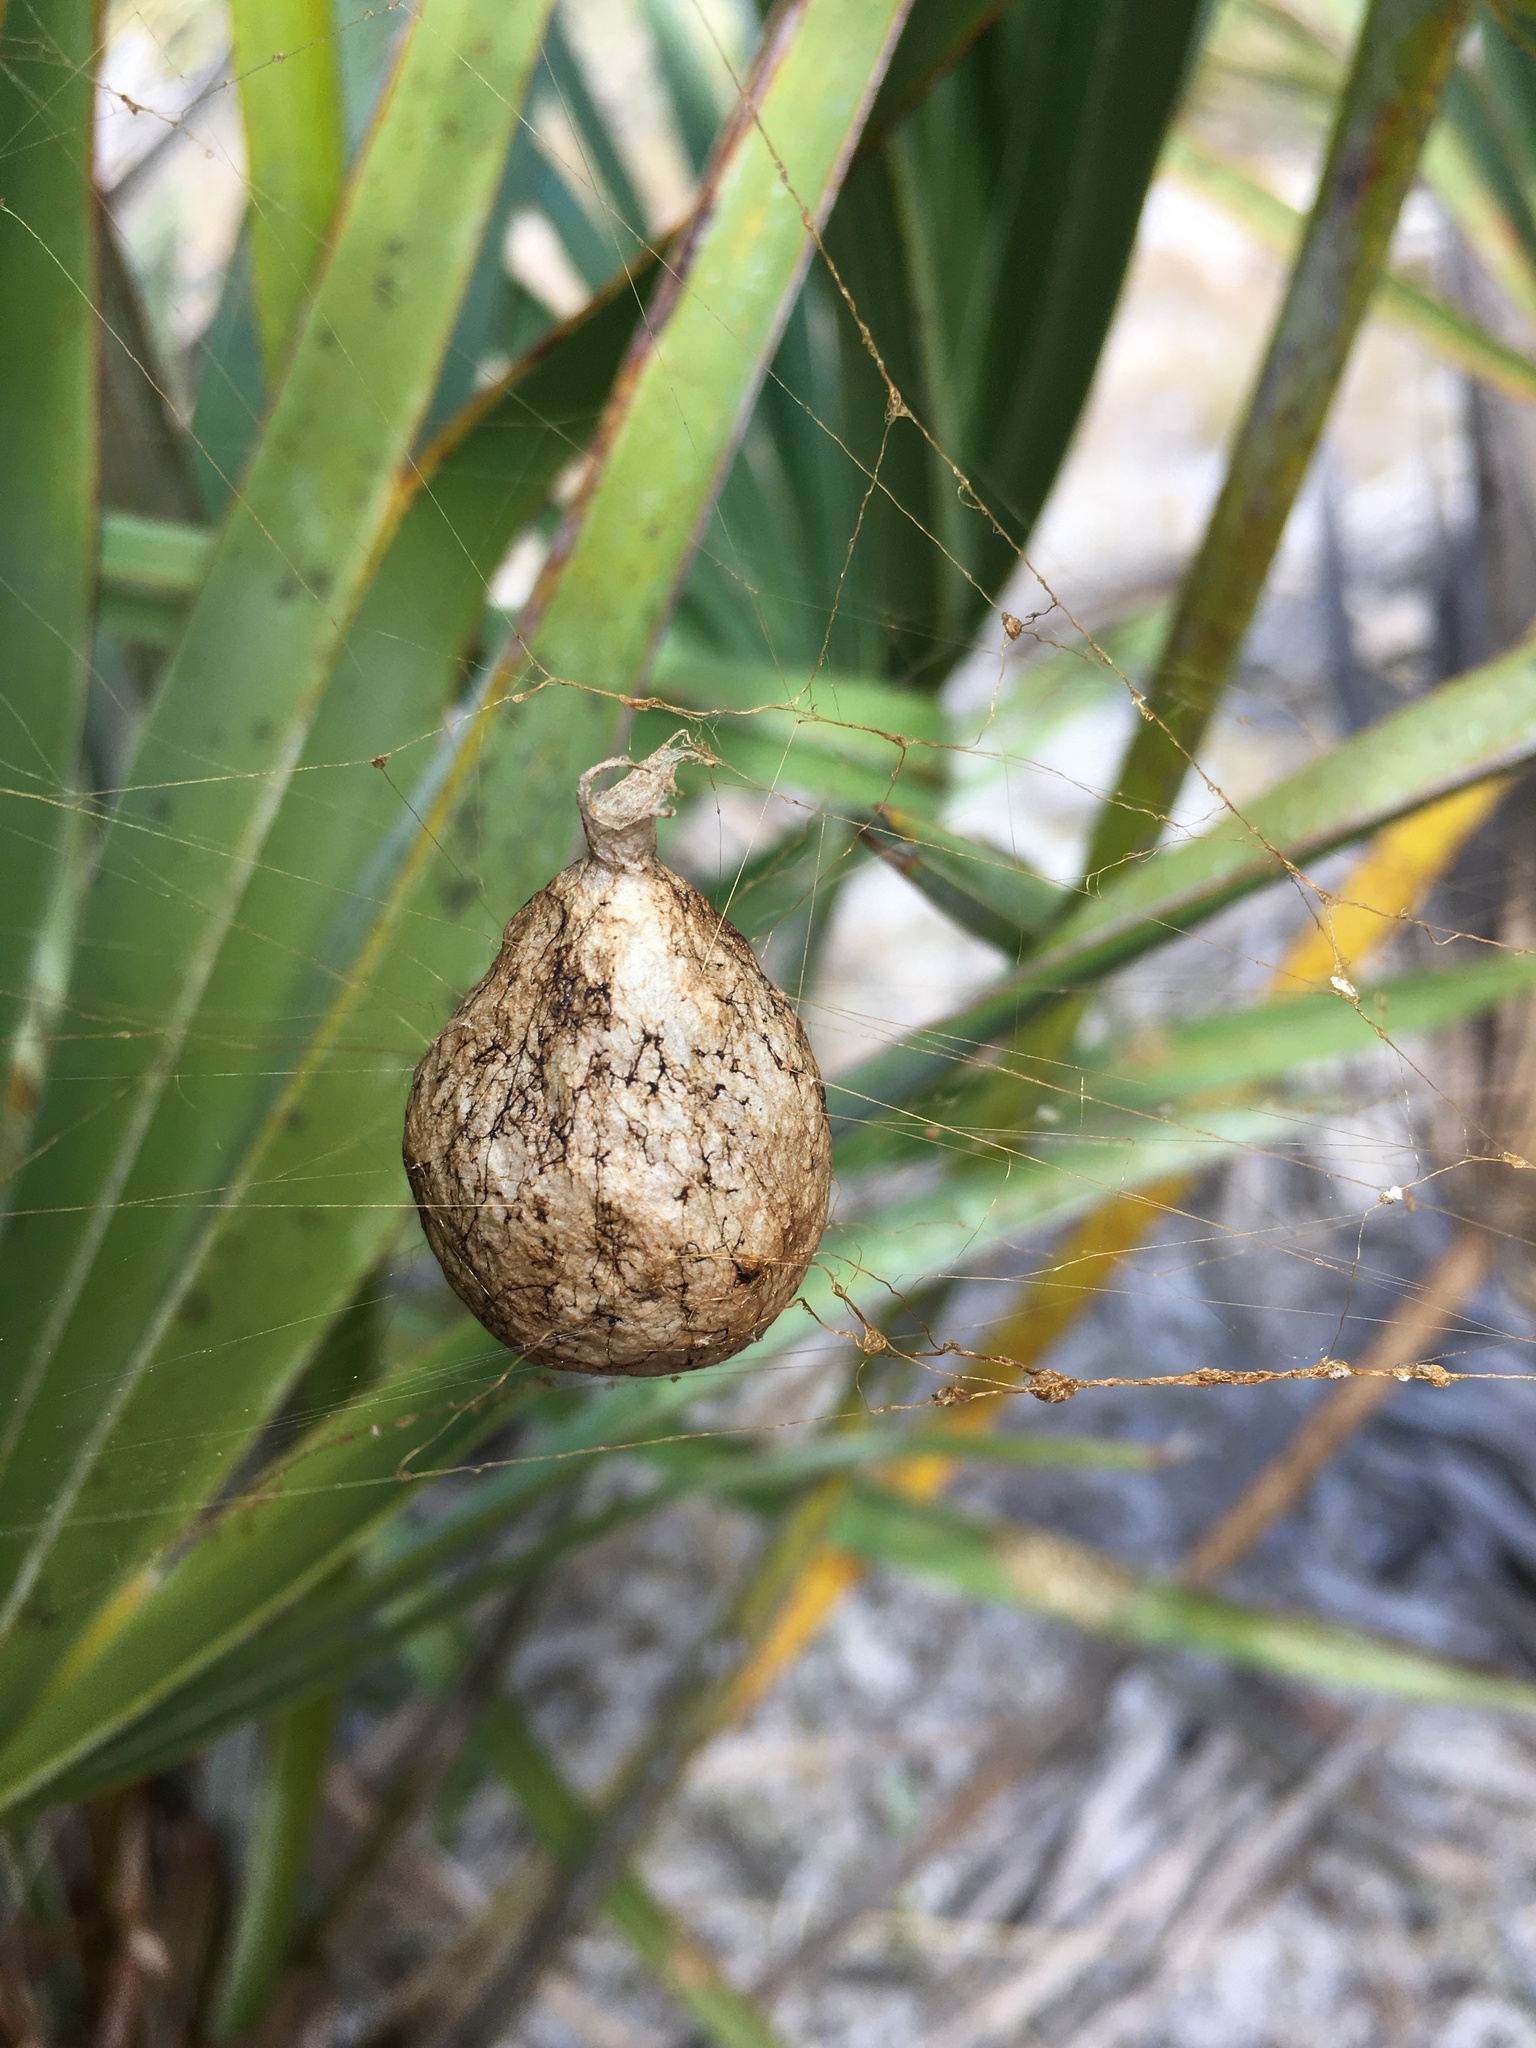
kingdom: Animalia
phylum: Arthropoda
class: Arachnida
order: Araneae
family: Araneidae
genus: Argiope
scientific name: Argiope aurantia
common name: Orb weavers
